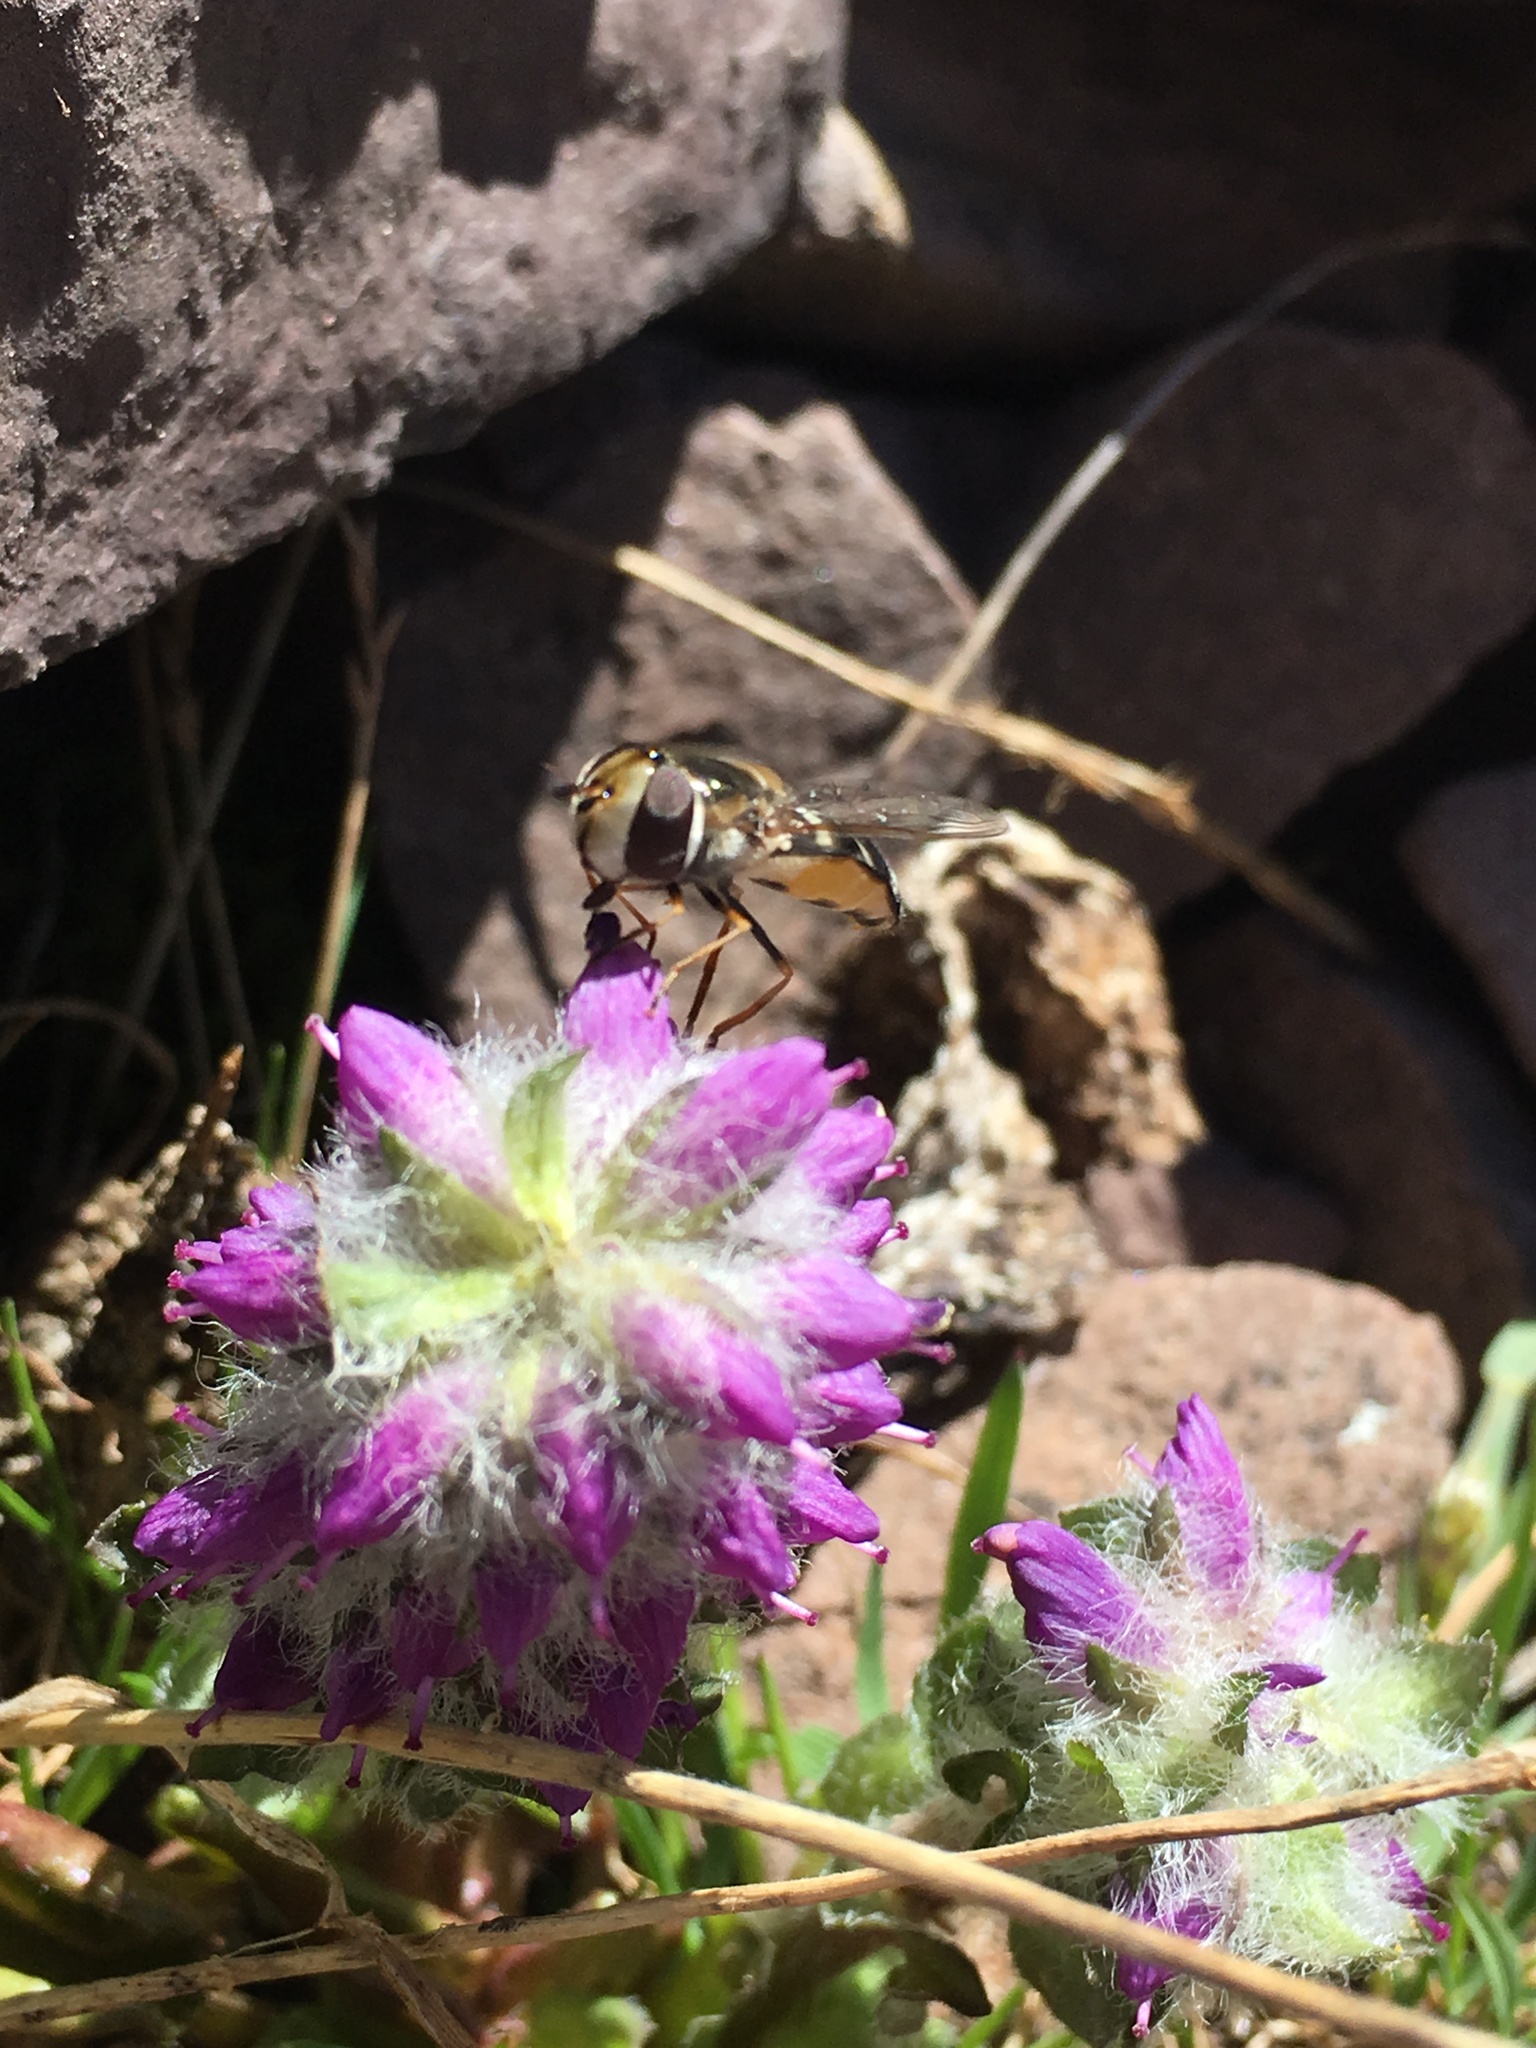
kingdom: Animalia
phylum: Arthropoda
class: Insecta
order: Diptera
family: Syrphidae
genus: Scaeva
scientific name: Scaeva affinis
